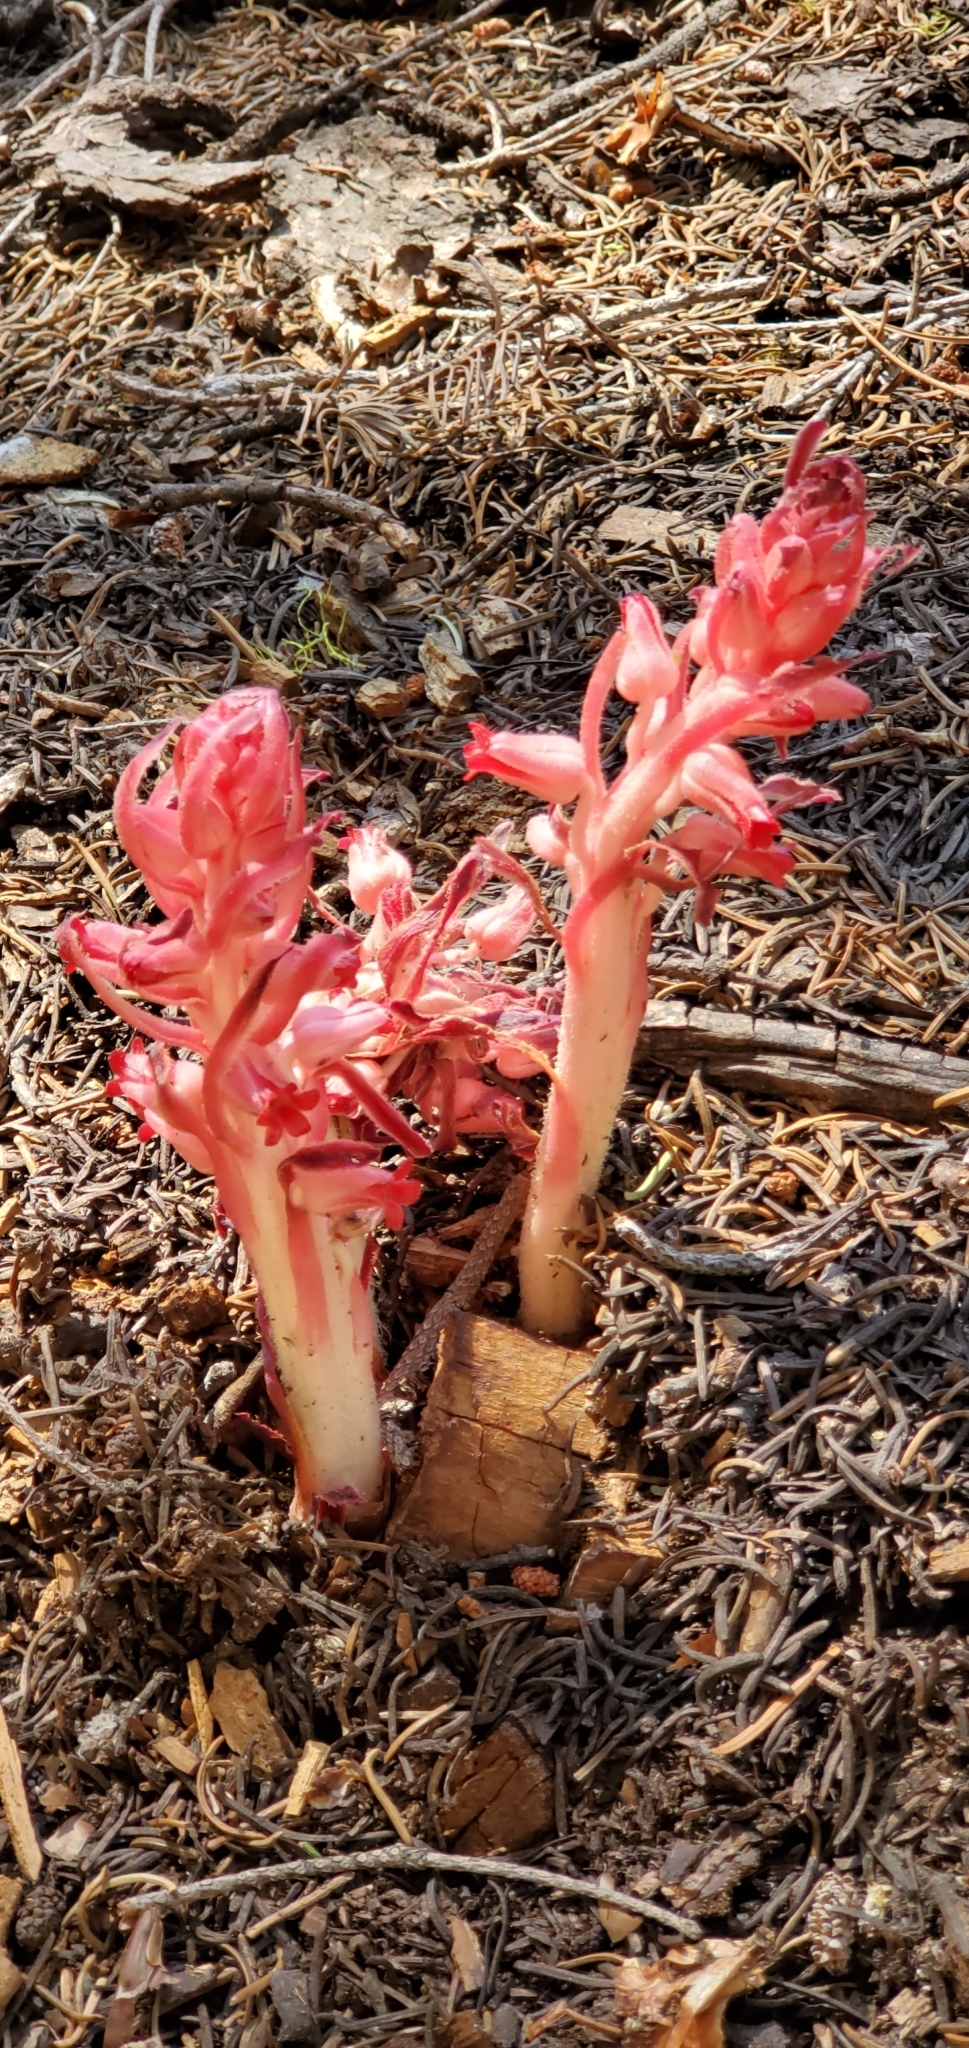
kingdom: Plantae
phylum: Tracheophyta
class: Magnoliopsida
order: Ericales
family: Ericaceae
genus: Sarcodes
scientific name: Sarcodes sanguinea
